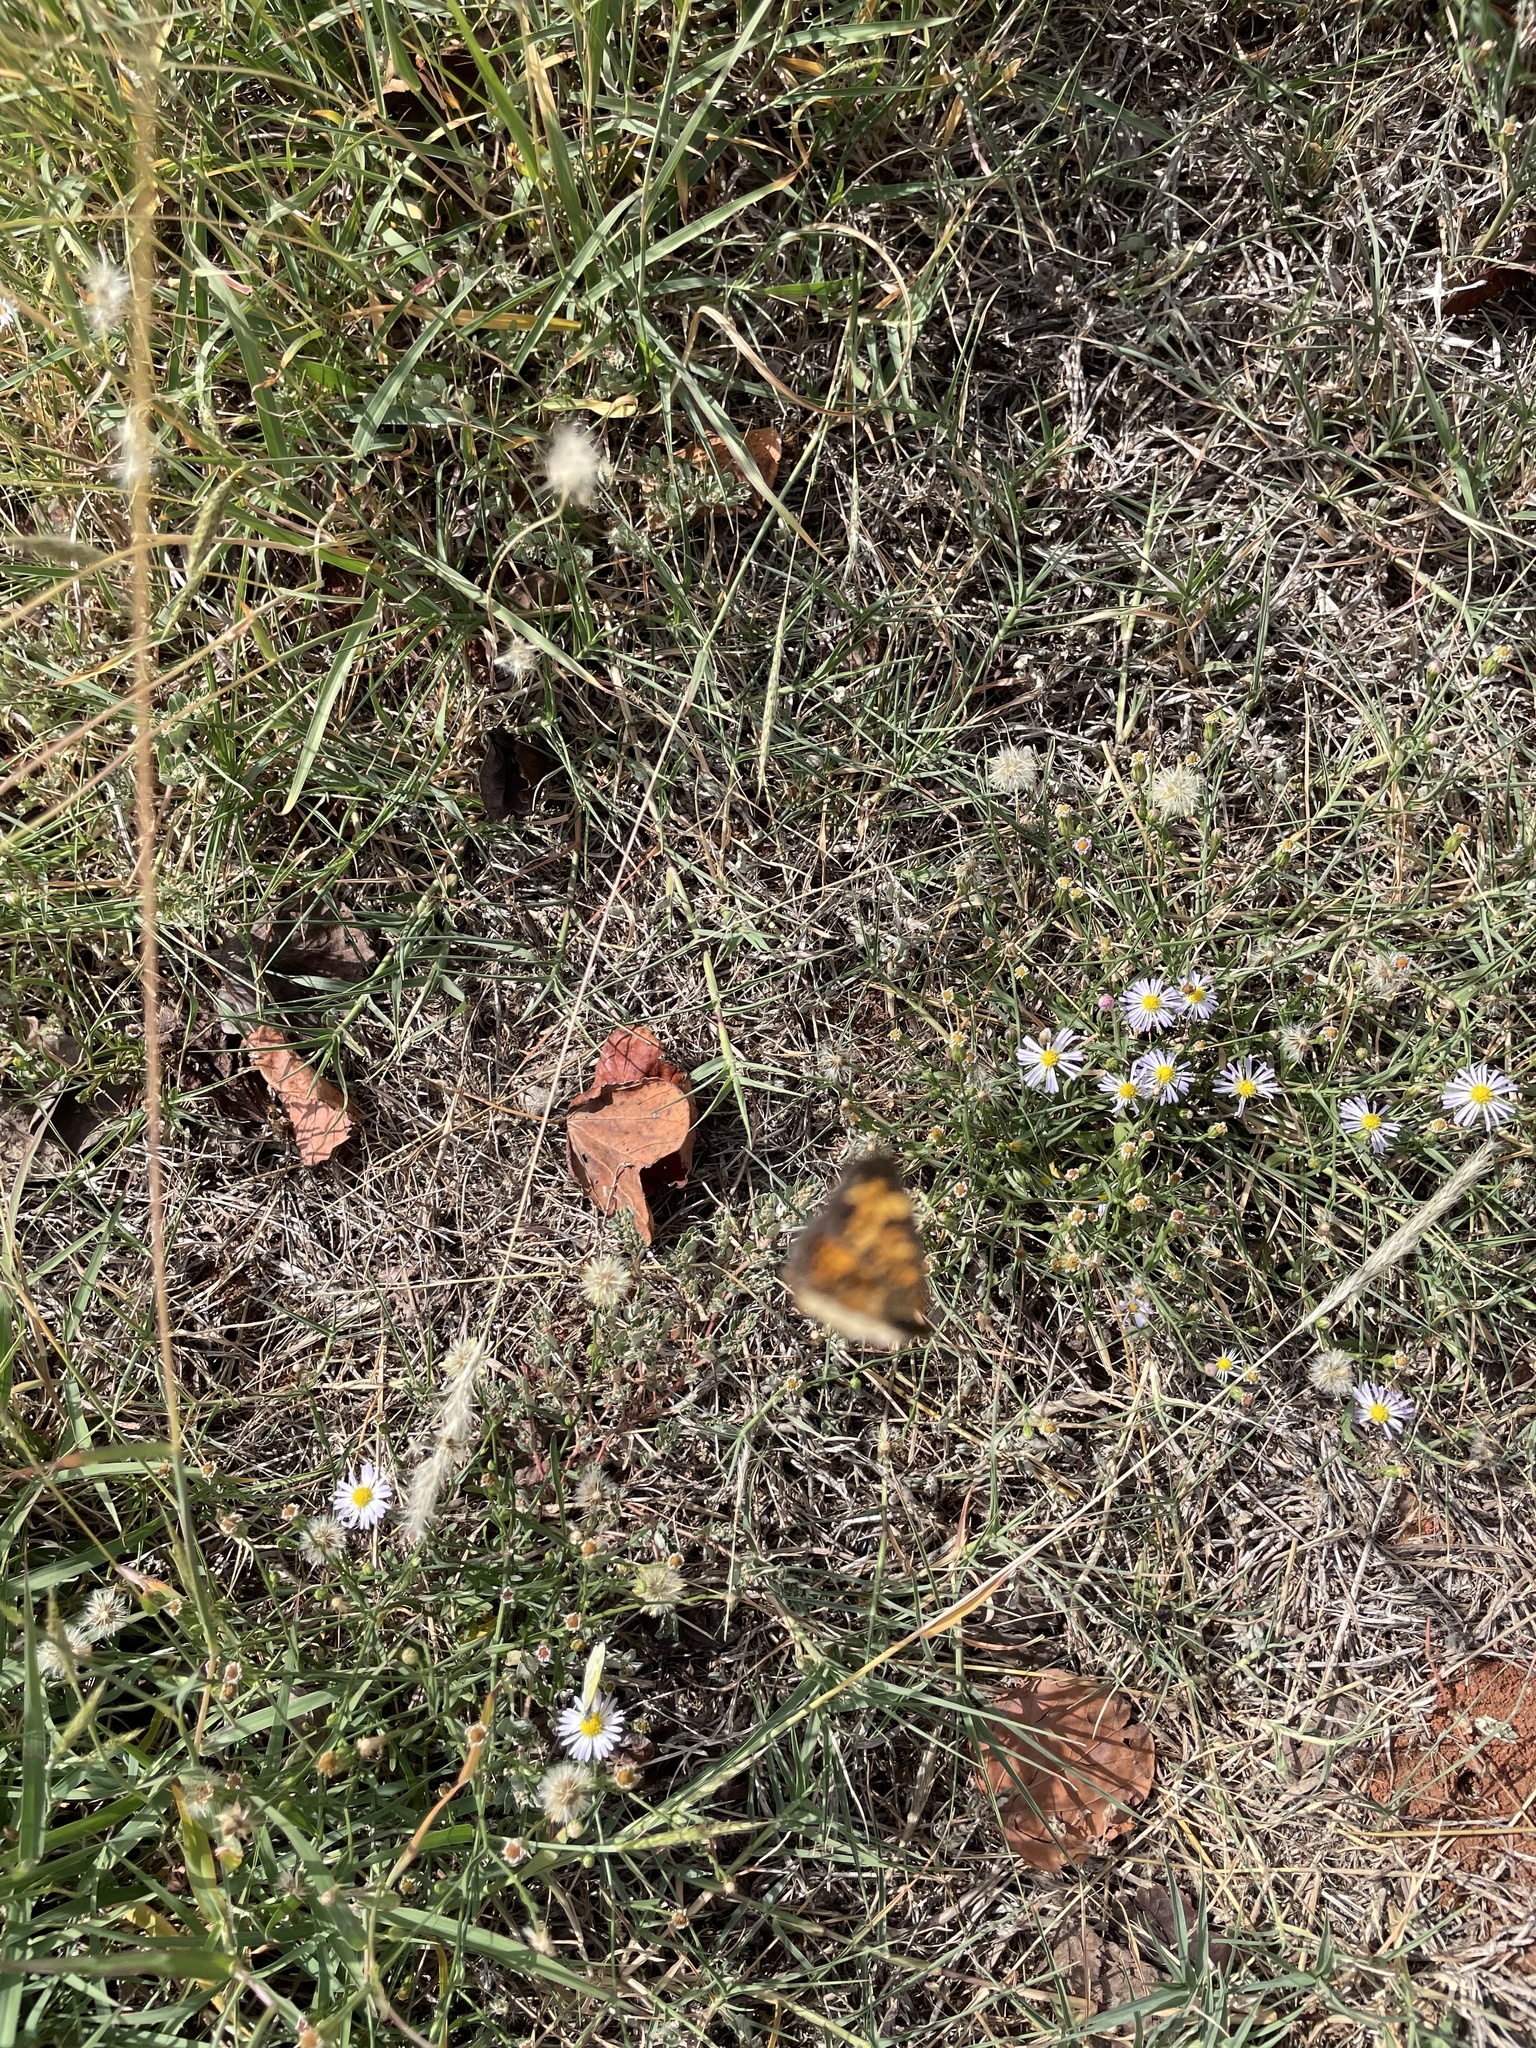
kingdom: Animalia
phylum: Arthropoda
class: Insecta
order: Lepidoptera
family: Nymphalidae
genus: Phyciodes
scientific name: Phyciodes tharos
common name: Pearl crescent
